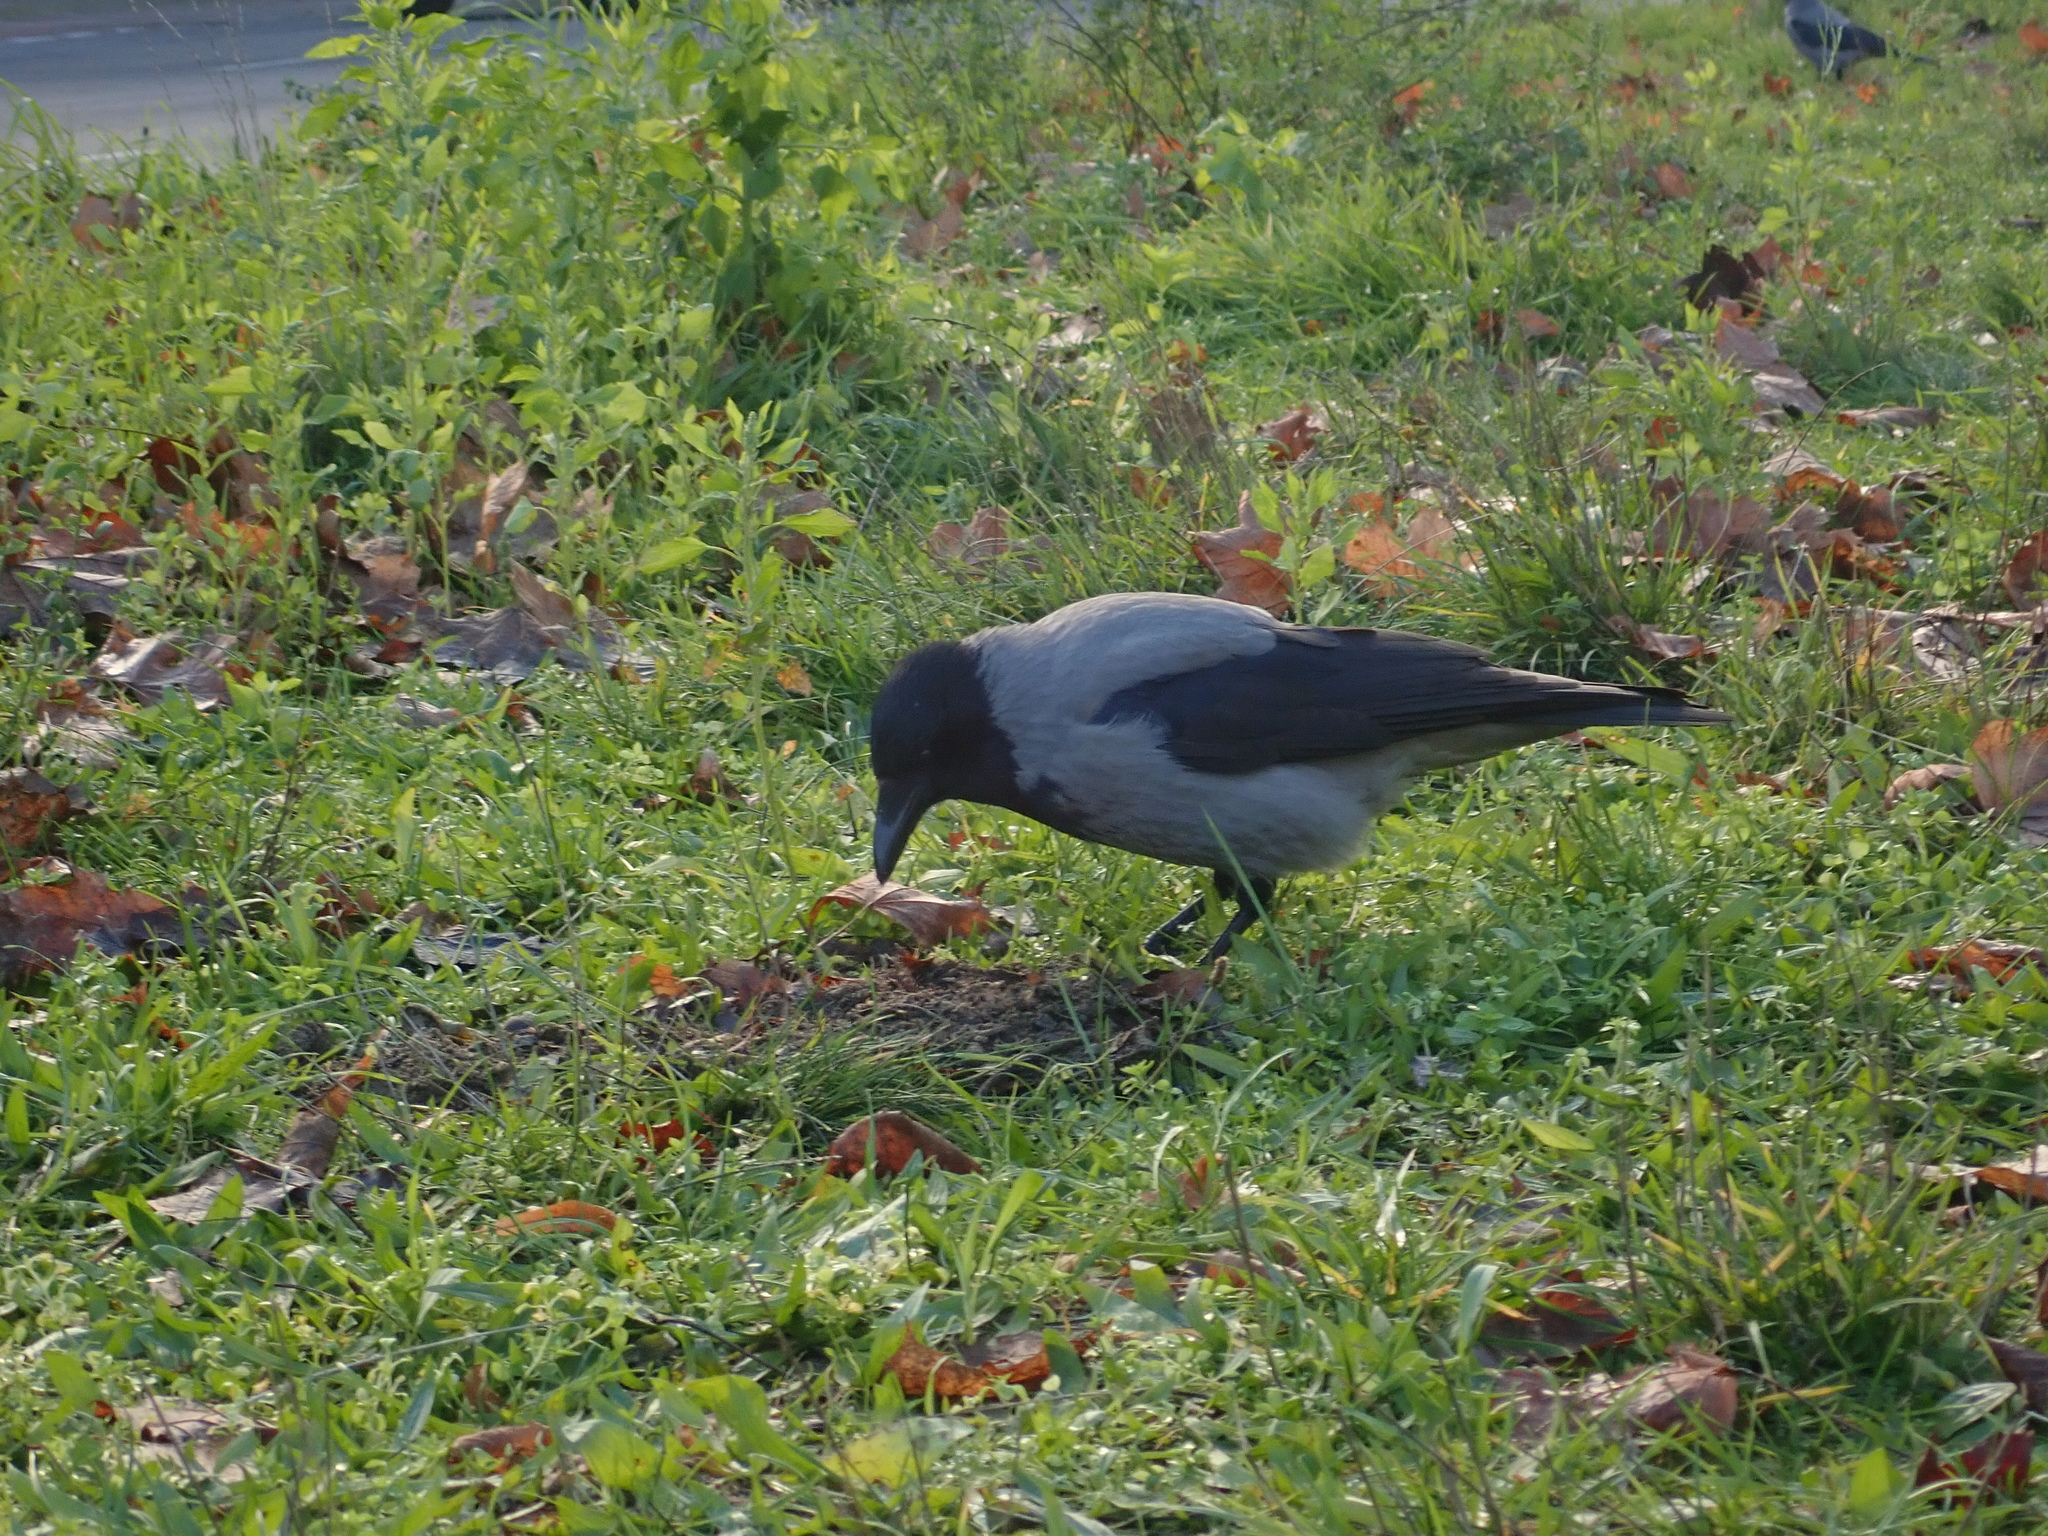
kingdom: Animalia
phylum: Chordata
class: Aves
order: Passeriformes
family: Corvidae
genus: Corvus
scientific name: Corvus cornix
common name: Hooded crow
